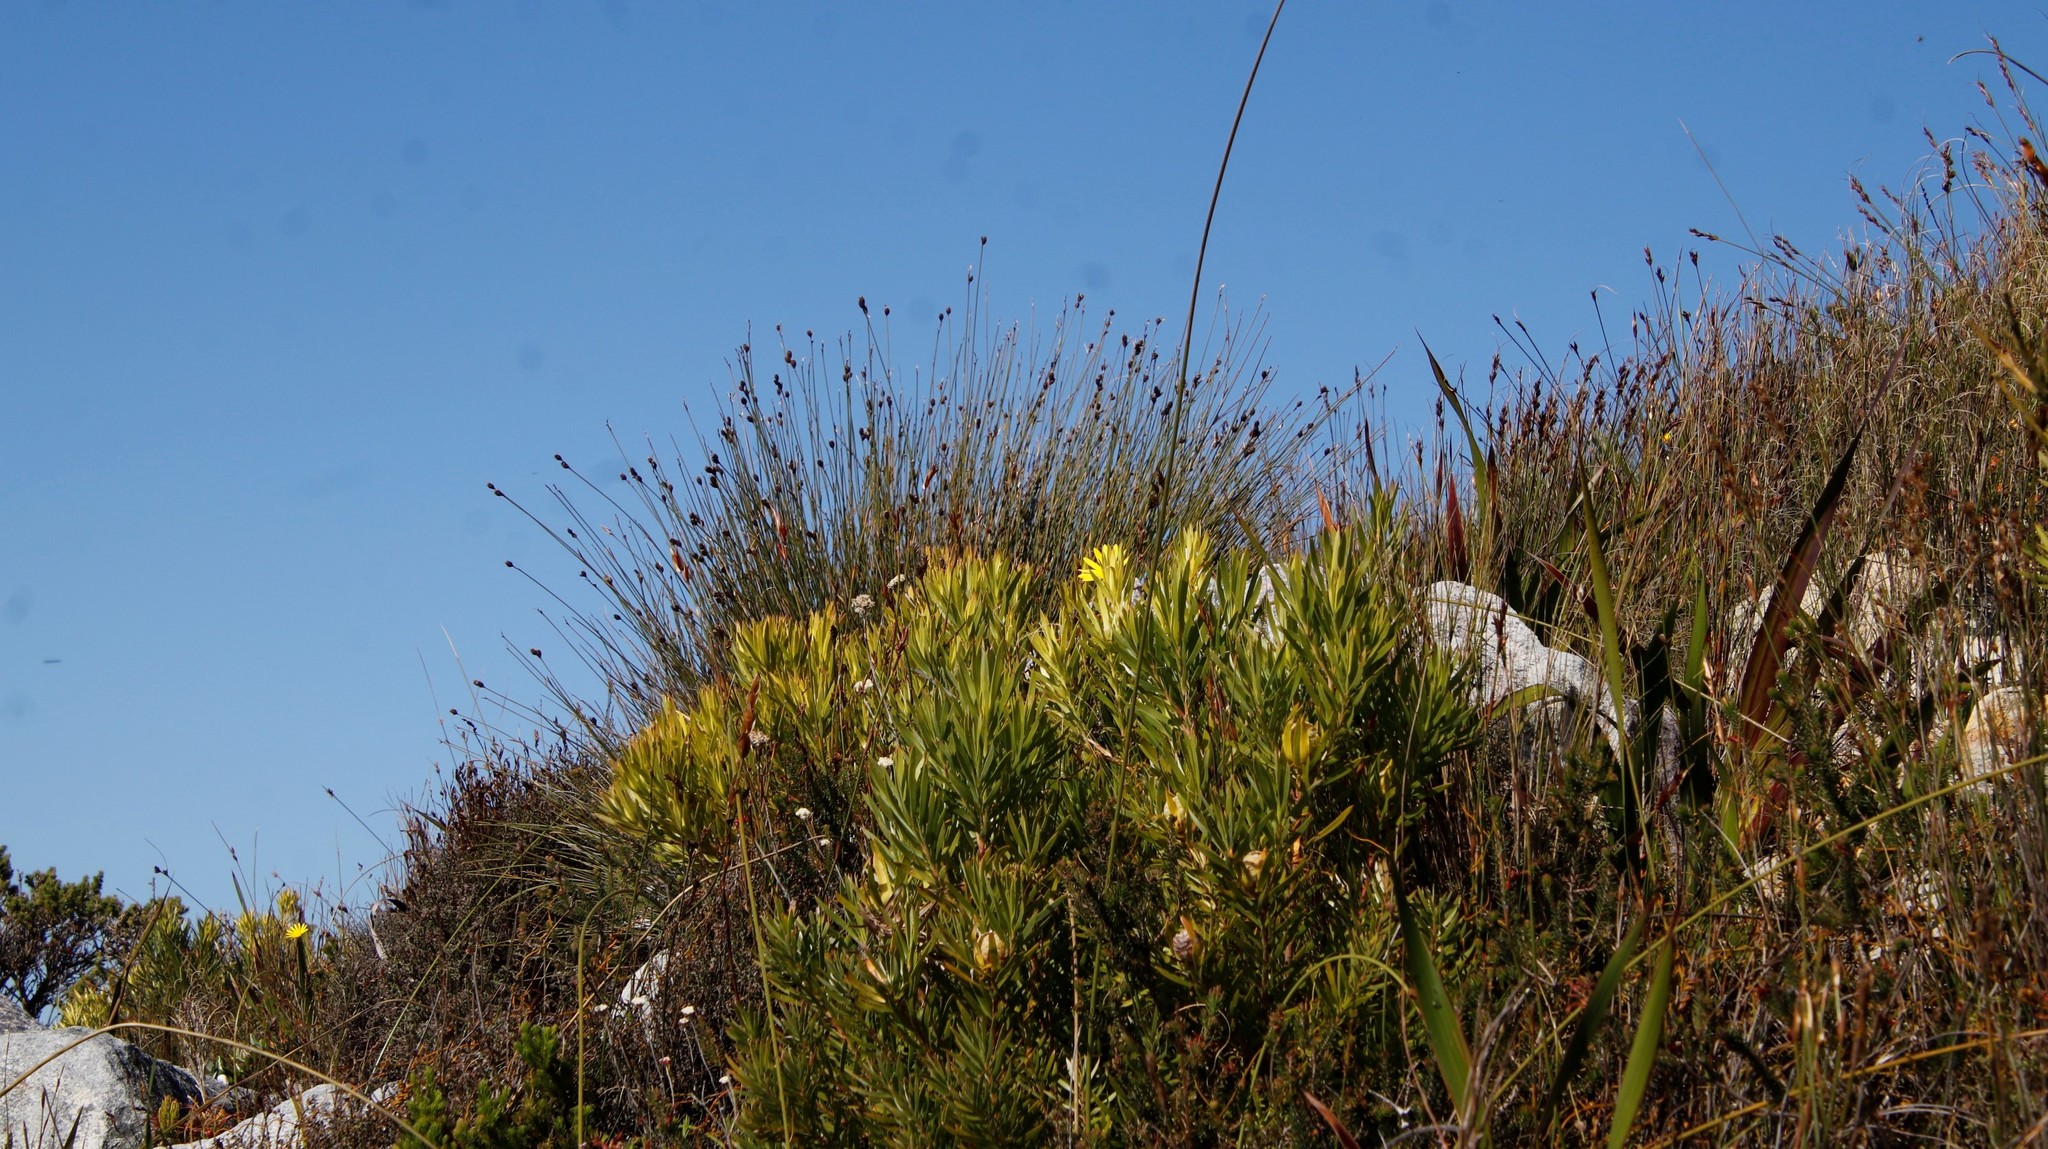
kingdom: Plantae
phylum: Tracheophyta
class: Liliopsida
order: Poales
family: Restionaceae
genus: Hypodiscus
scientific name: Hypodiscus aristatus
